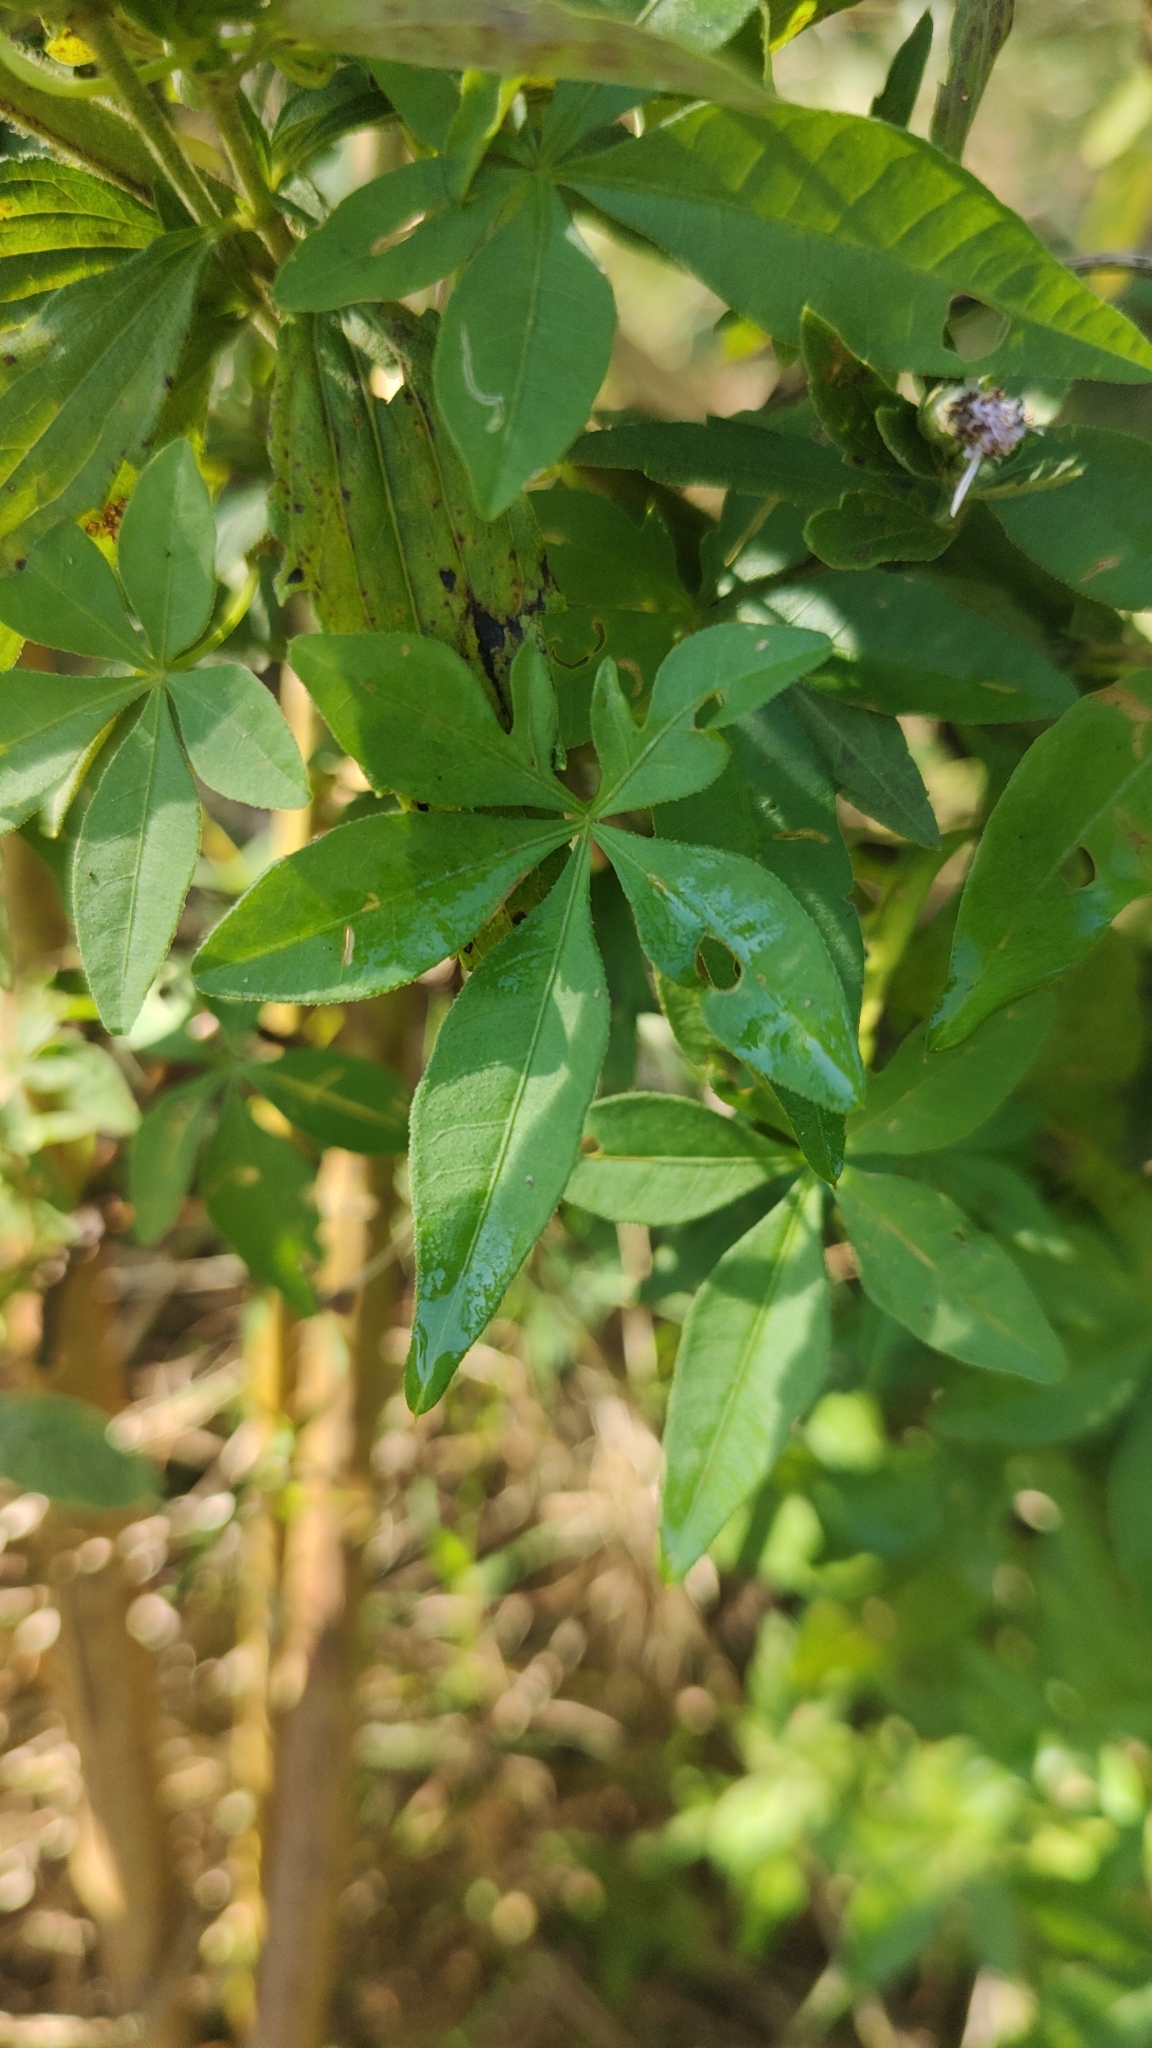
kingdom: Plantae
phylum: Tracheophyta
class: Magnoliopsida
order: Asterales
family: Asteraceae
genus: Chromolaena
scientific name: Chromolaena pedunculosa
